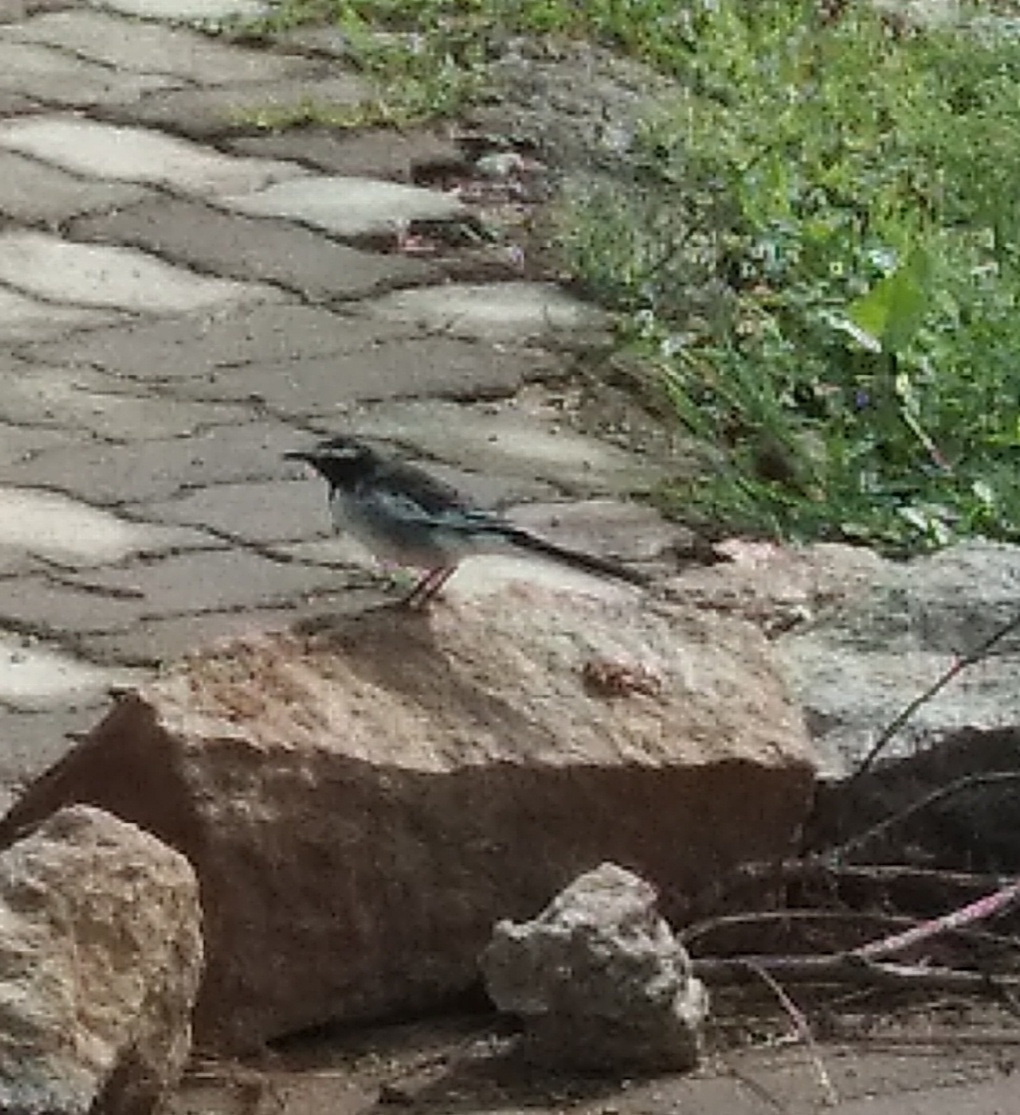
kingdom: Animalia
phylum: Chordata
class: Aves
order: Passeriformes
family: Motacillidae
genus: Motacilla
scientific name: Motacilla maderaspatensis
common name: White-browed wagtail
